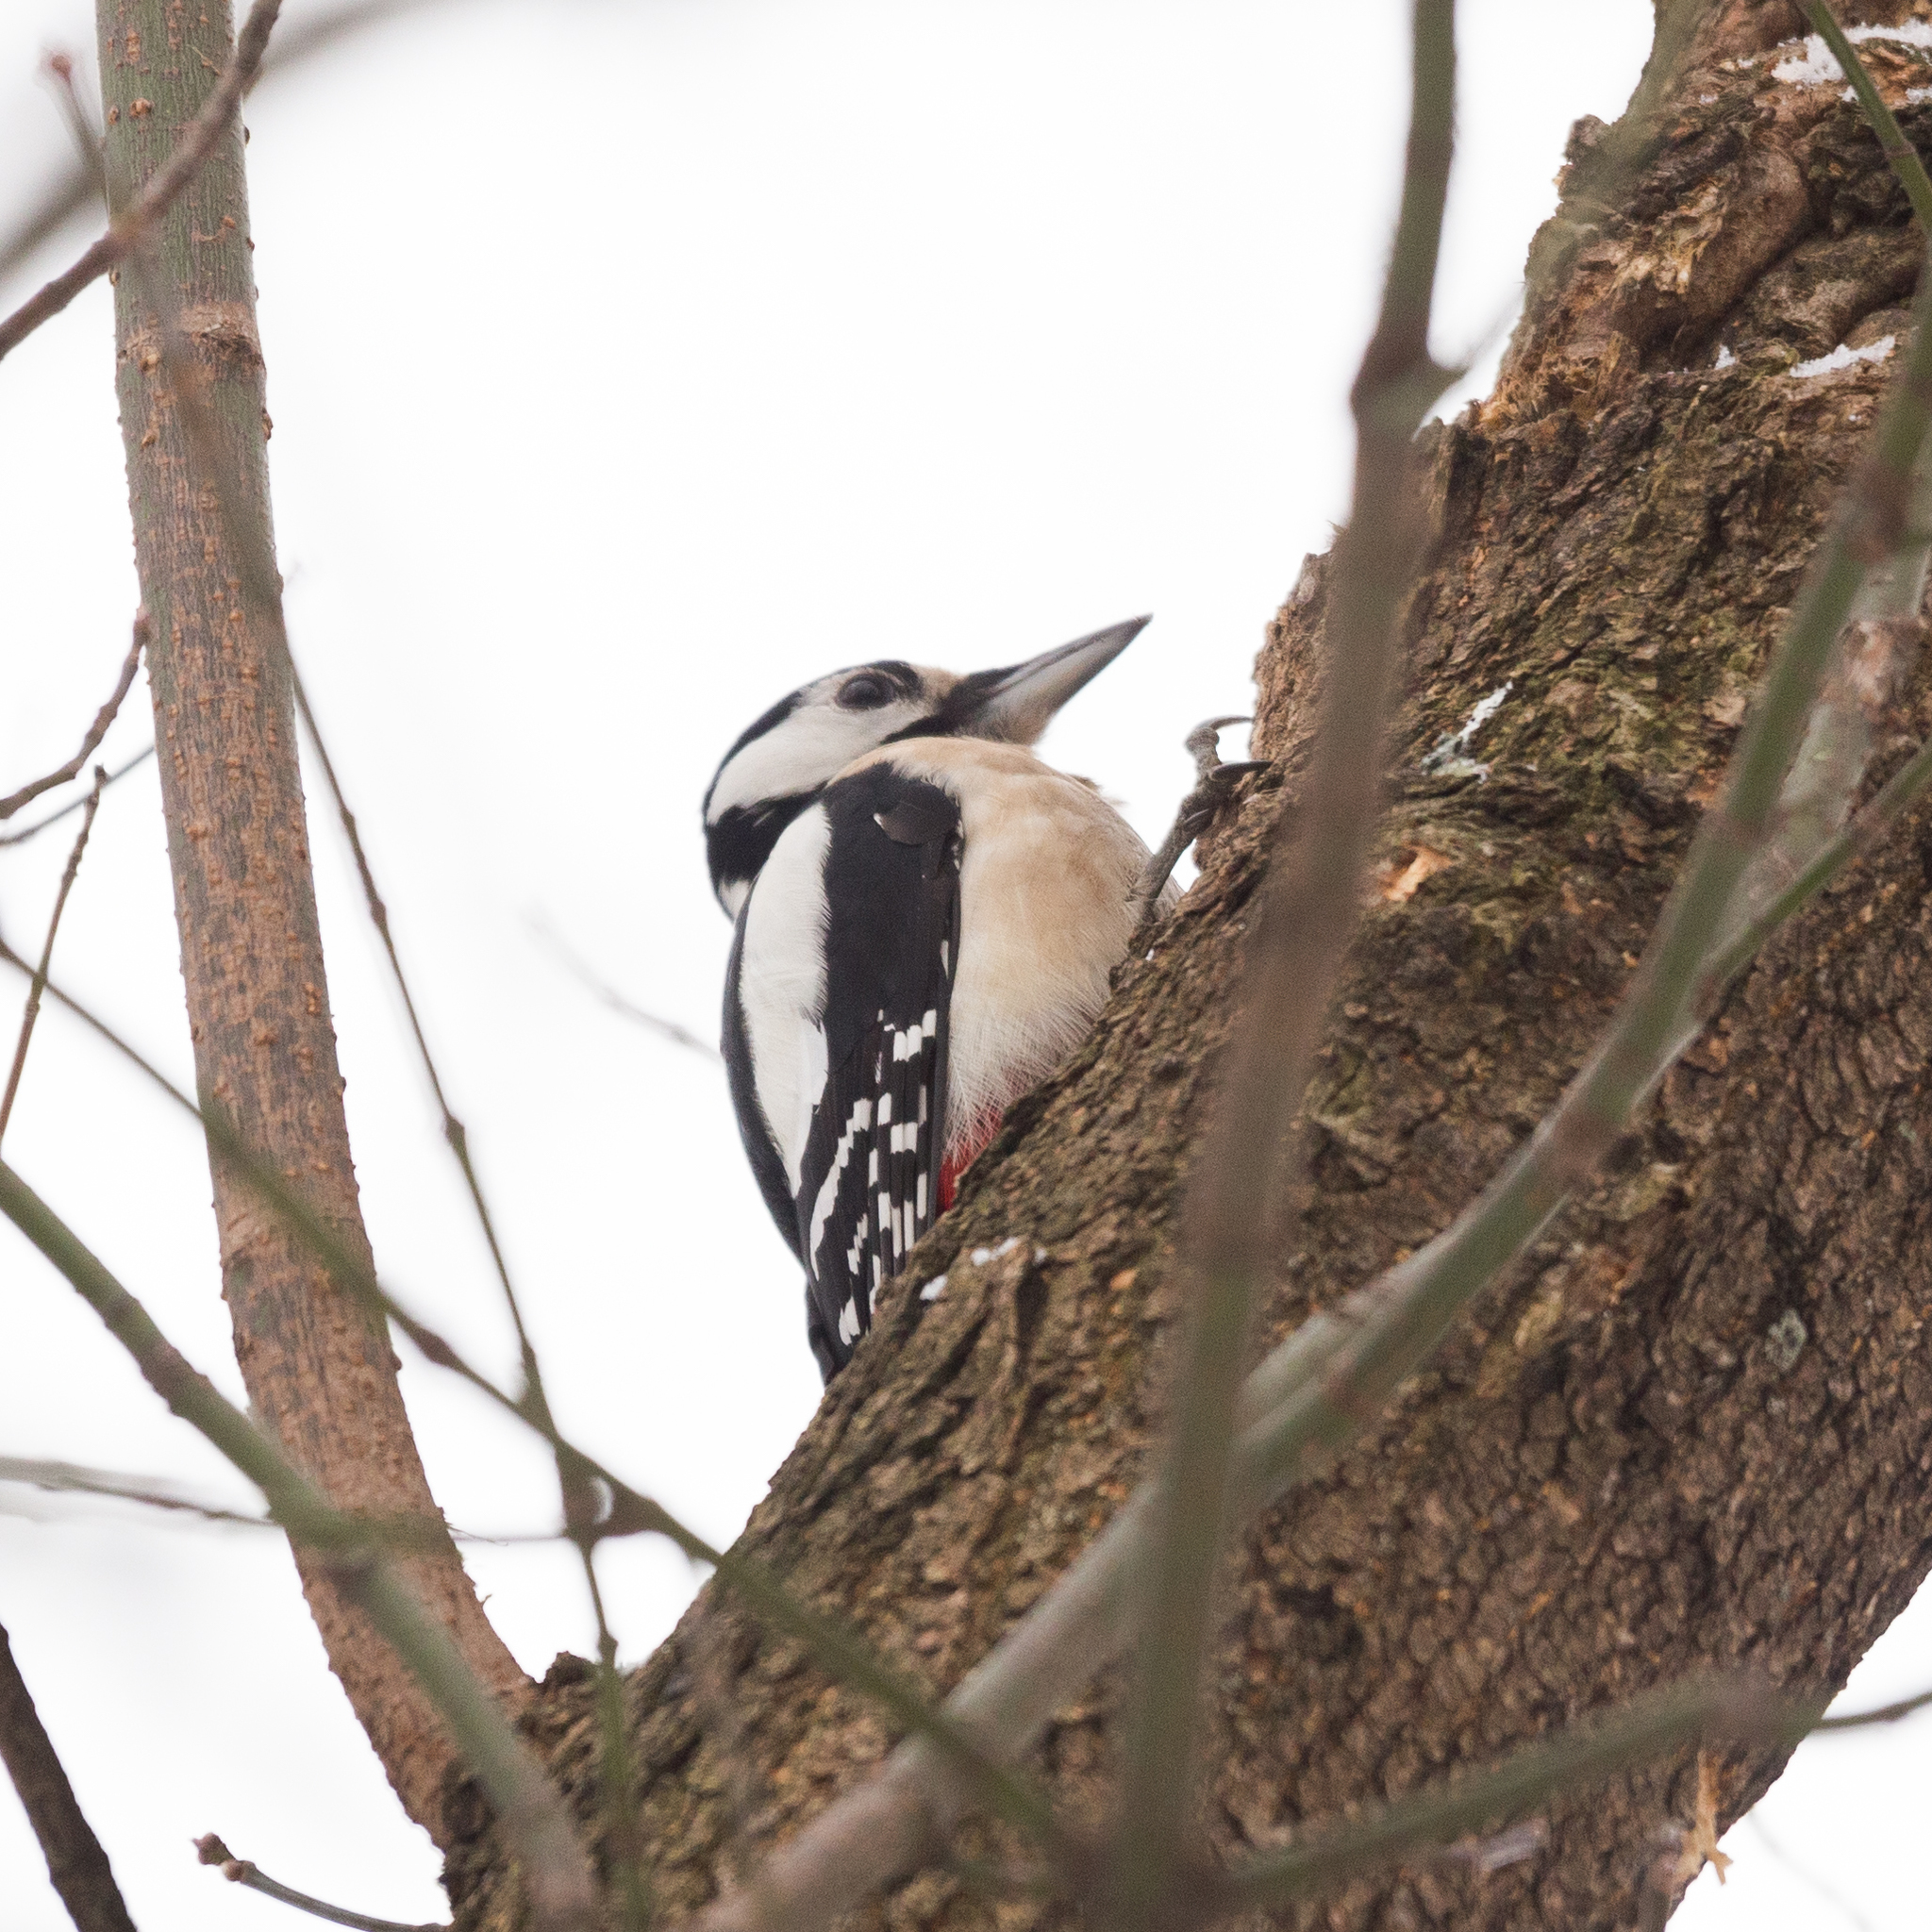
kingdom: Animalia
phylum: Chordata
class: Aves
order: Piciformes
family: Picidae
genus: Dendrocopos
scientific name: Dendrocopos major
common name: Great spotted woodpecker
